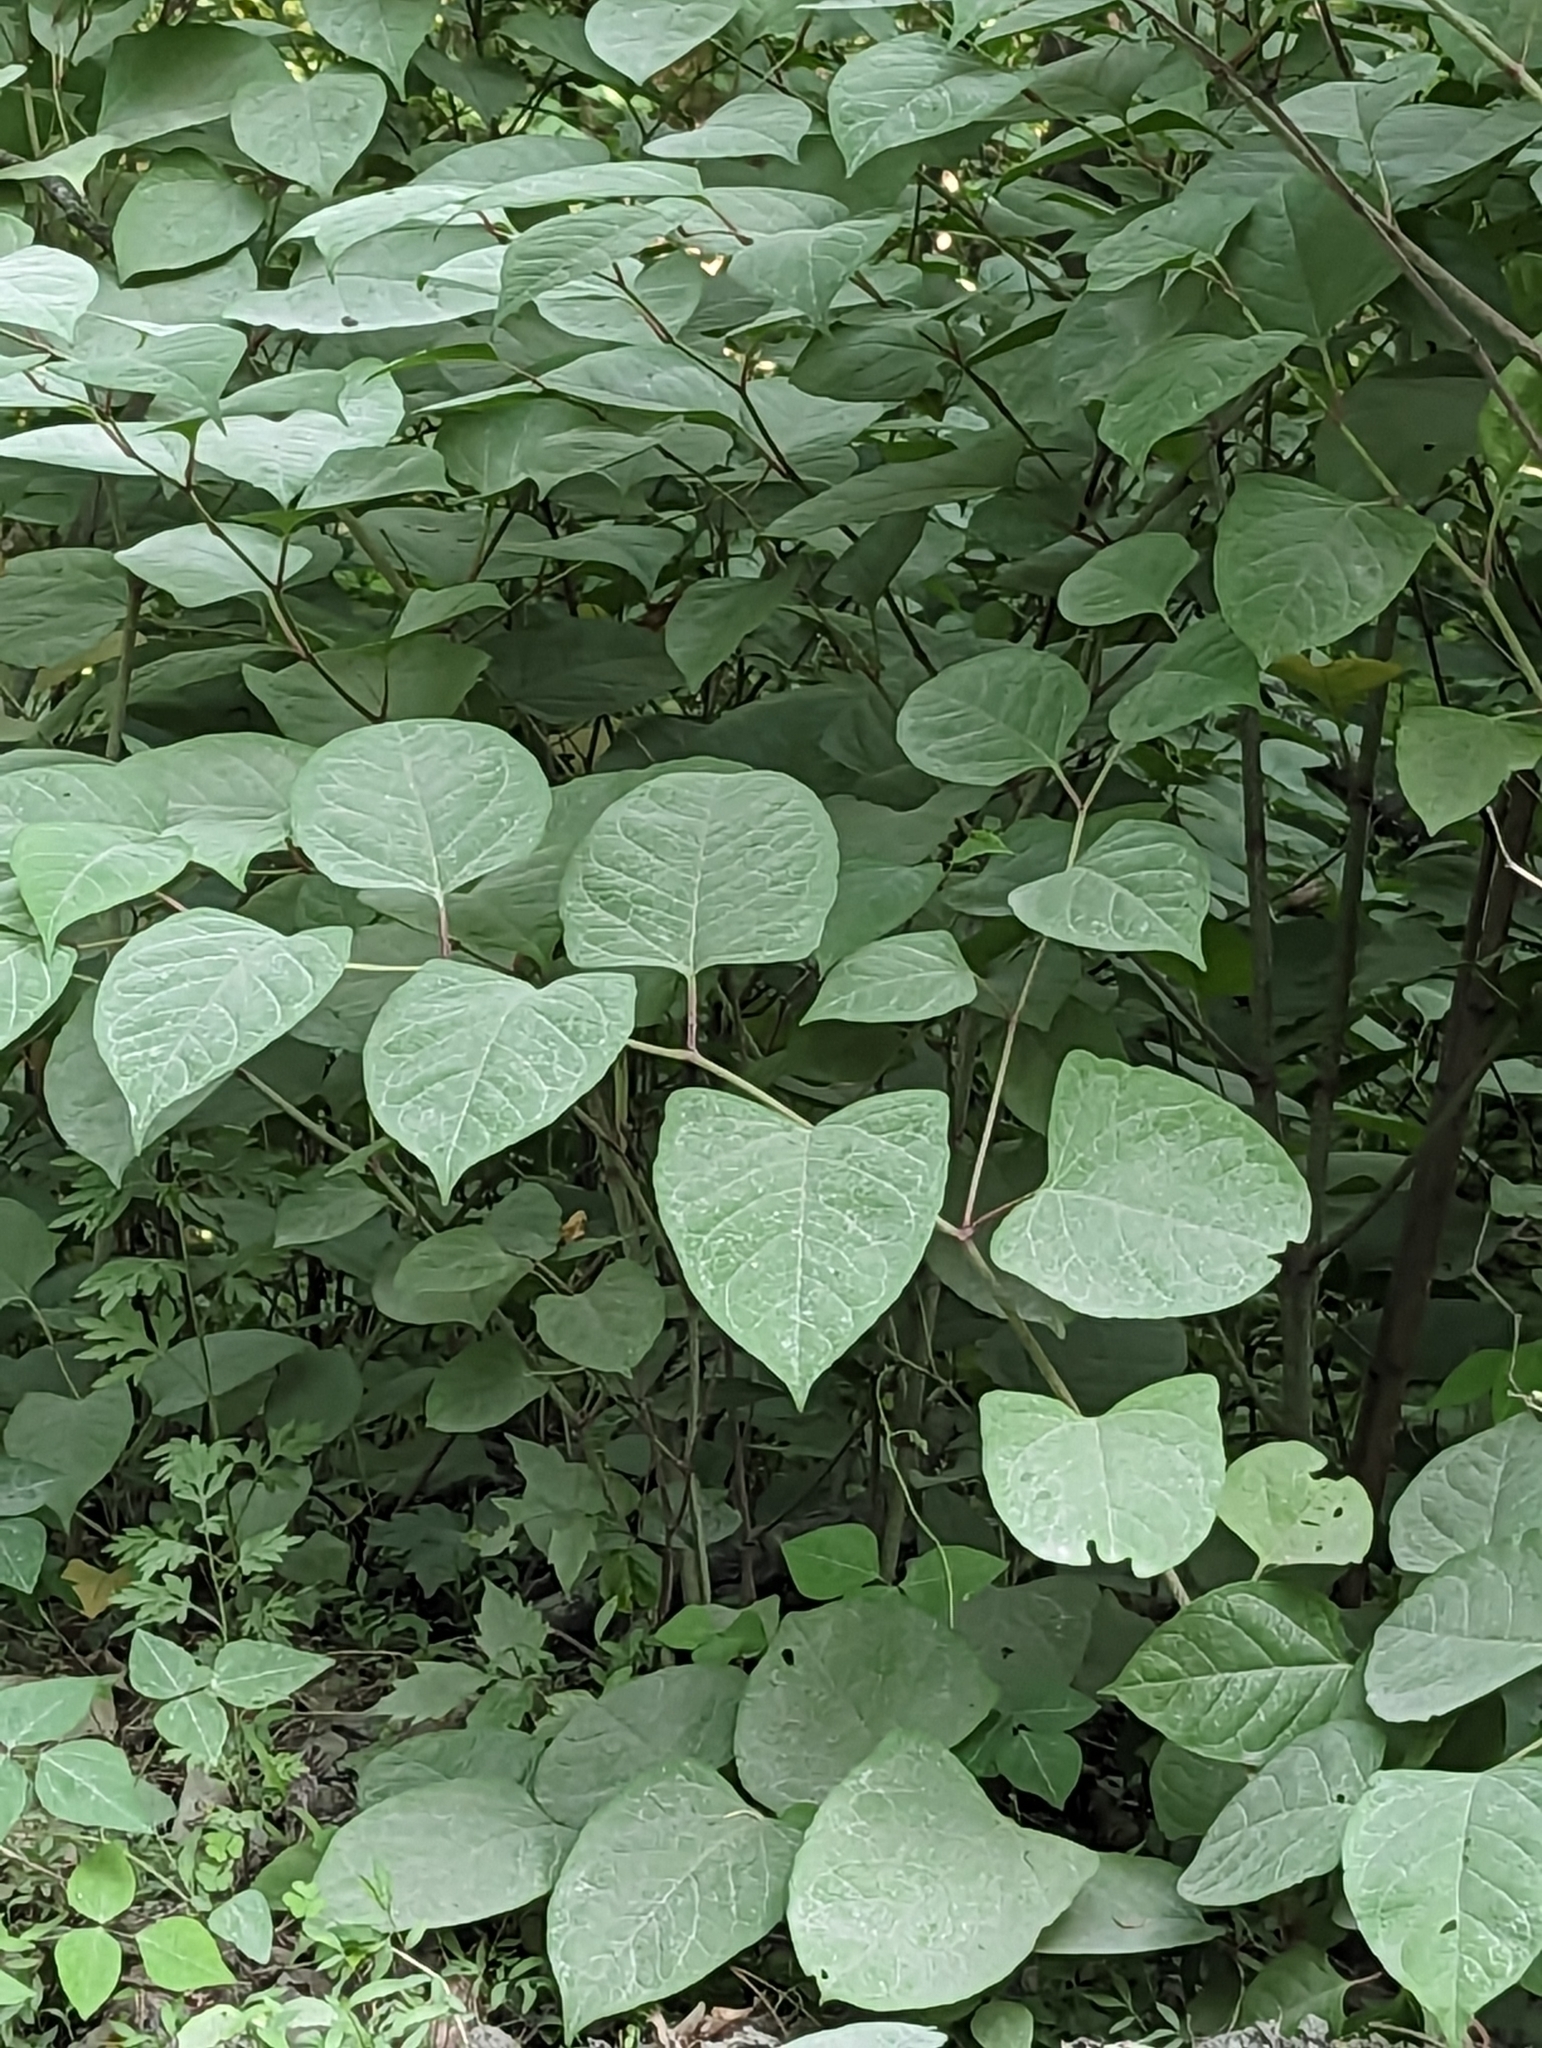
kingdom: Plantae
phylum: Tracheophyta
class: Magnoliopsida
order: Caryophyllales
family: Polygonaceae
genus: Reynoutria
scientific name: Reynoutria japonica
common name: Japanese knotweed
